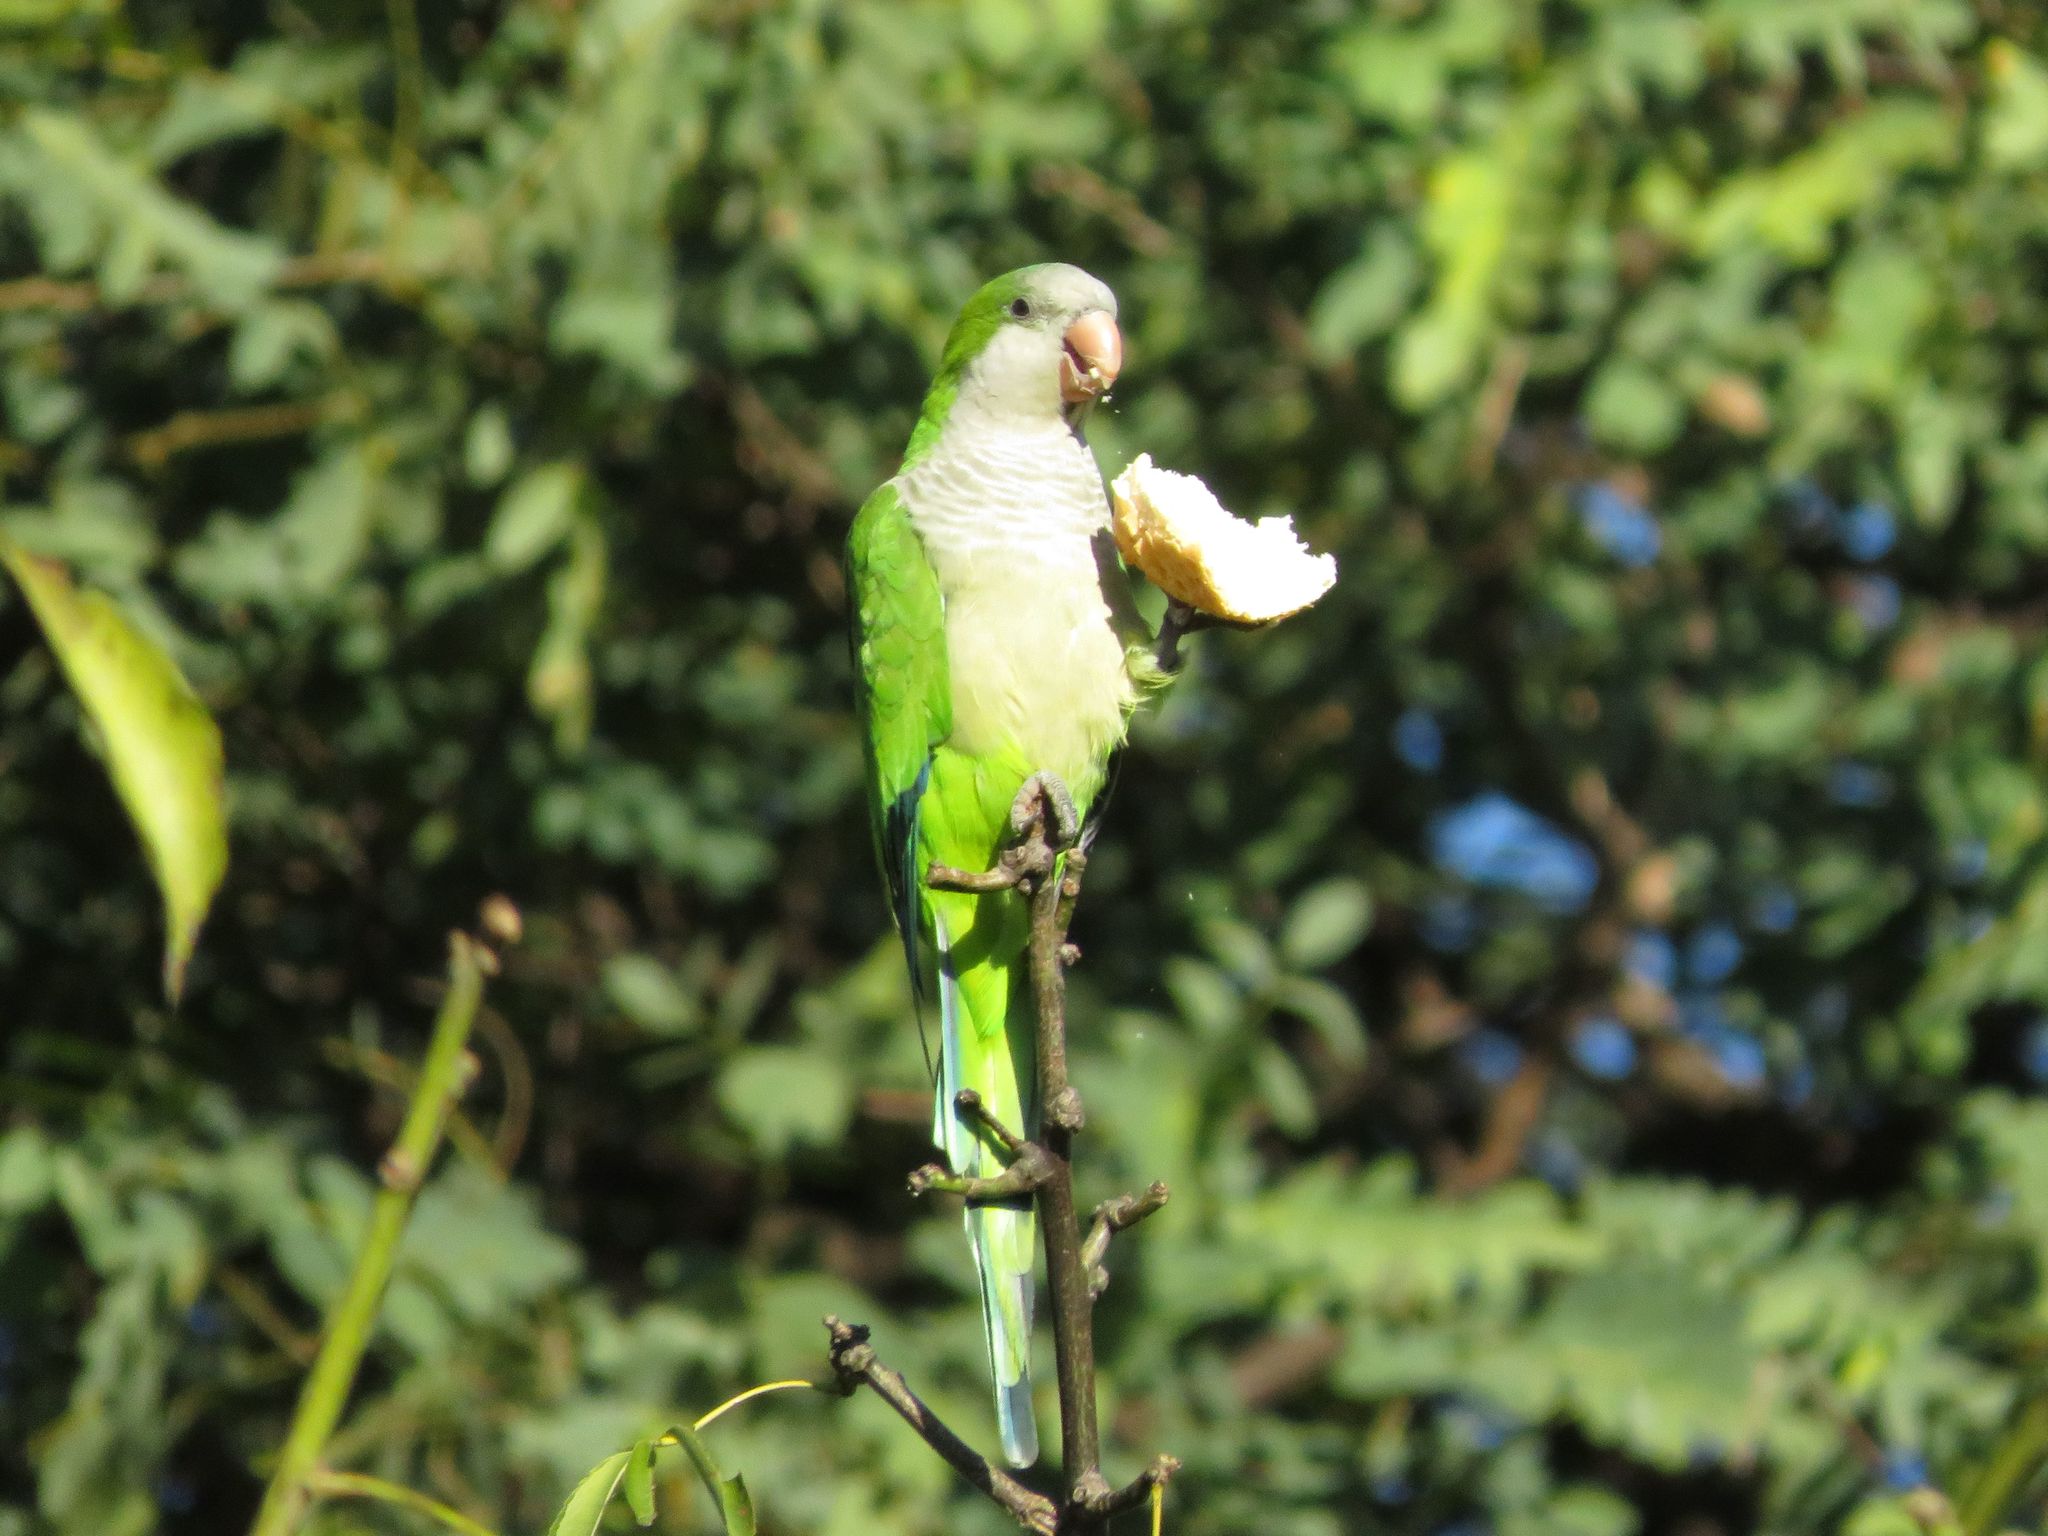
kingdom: Animalia
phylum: Chordata
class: Aves
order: Psittaciformes
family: Psittacidae
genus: Myiopsitta
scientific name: Myiopsitta monachus
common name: Monk parakeet
